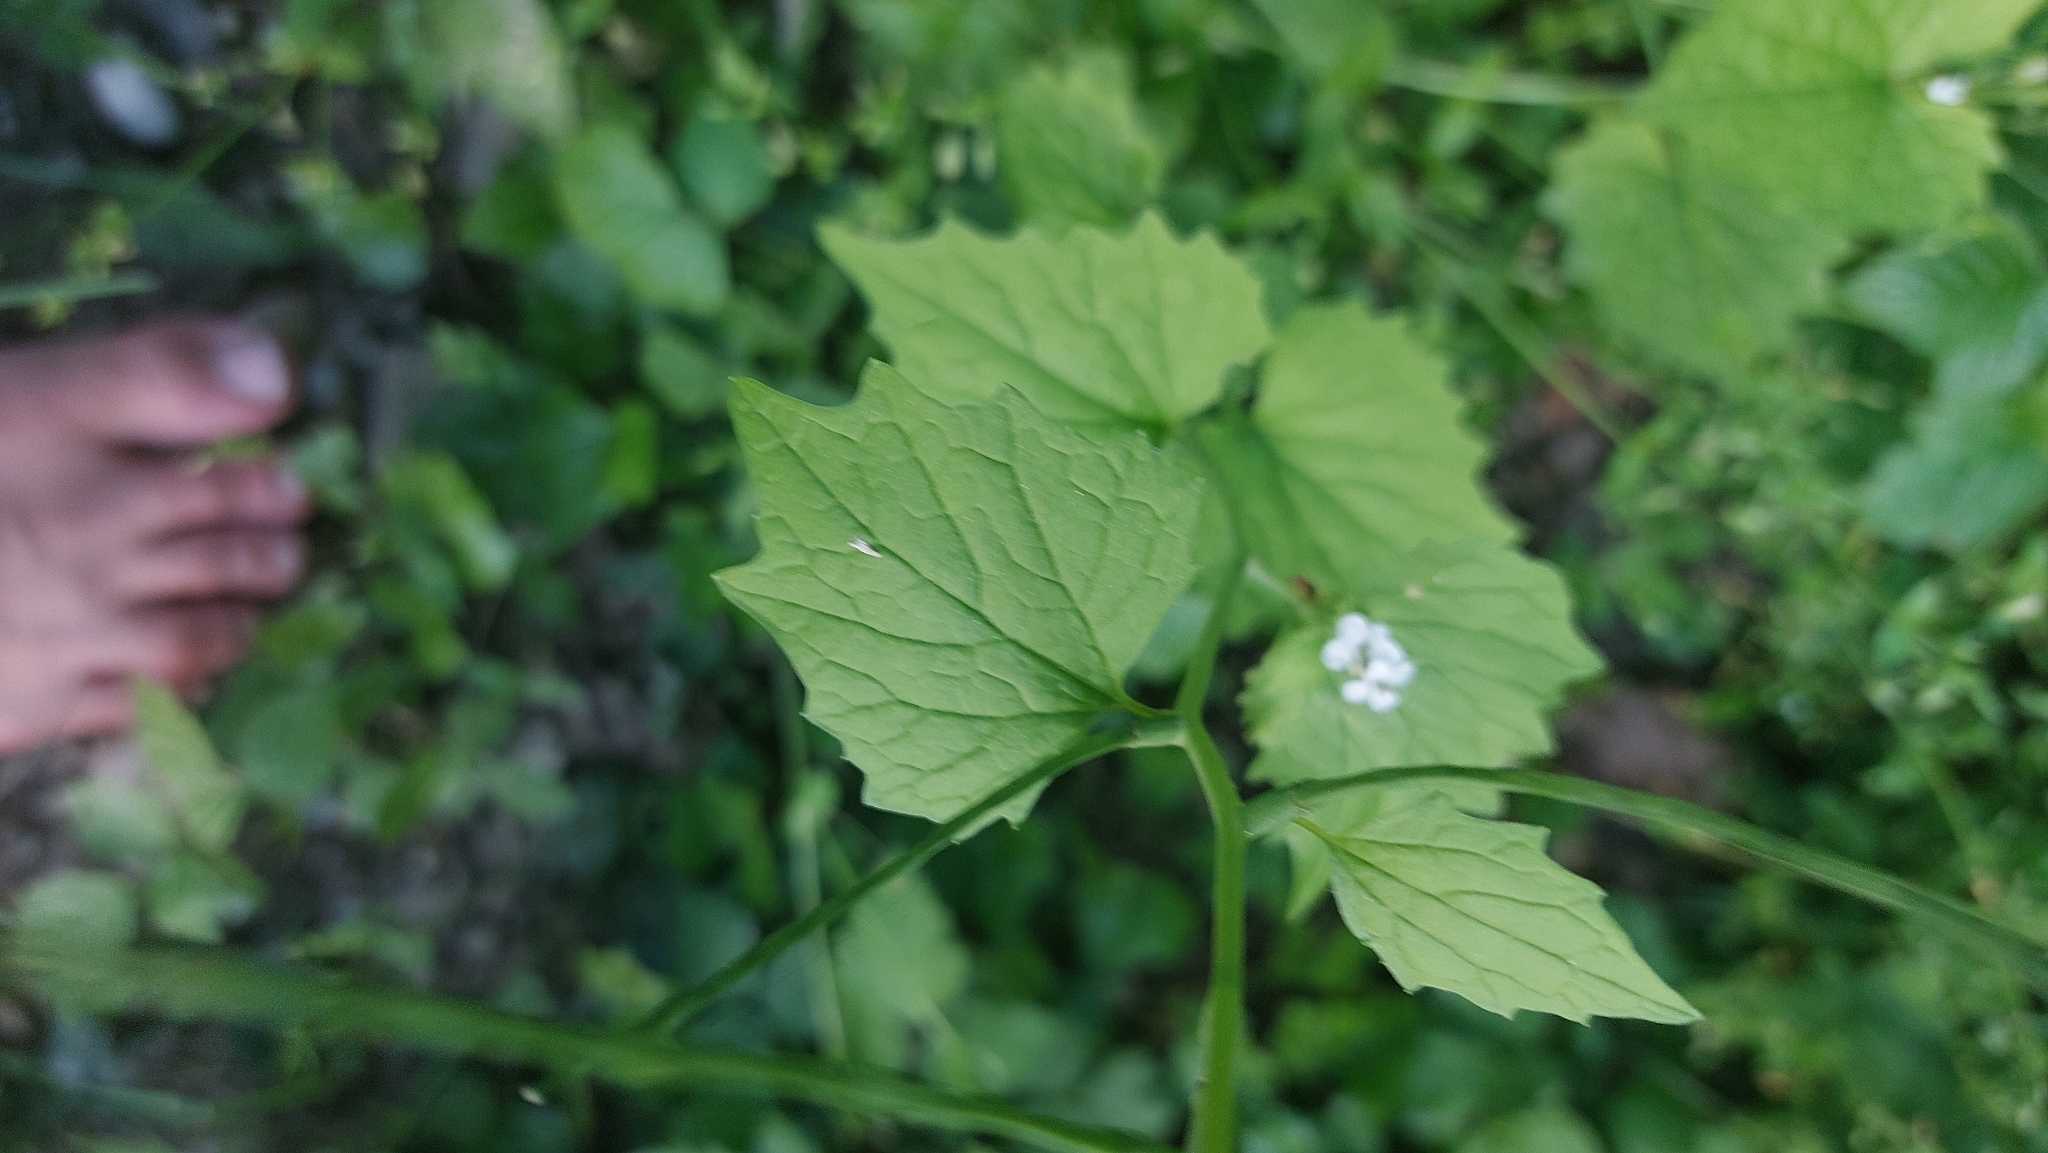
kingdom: Plantae
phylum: Tracheophyta
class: Magnoliopsida
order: Brassicales
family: Brassicaceae
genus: Alliaria
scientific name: Alliaria petiolata
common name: Garlic mustard
